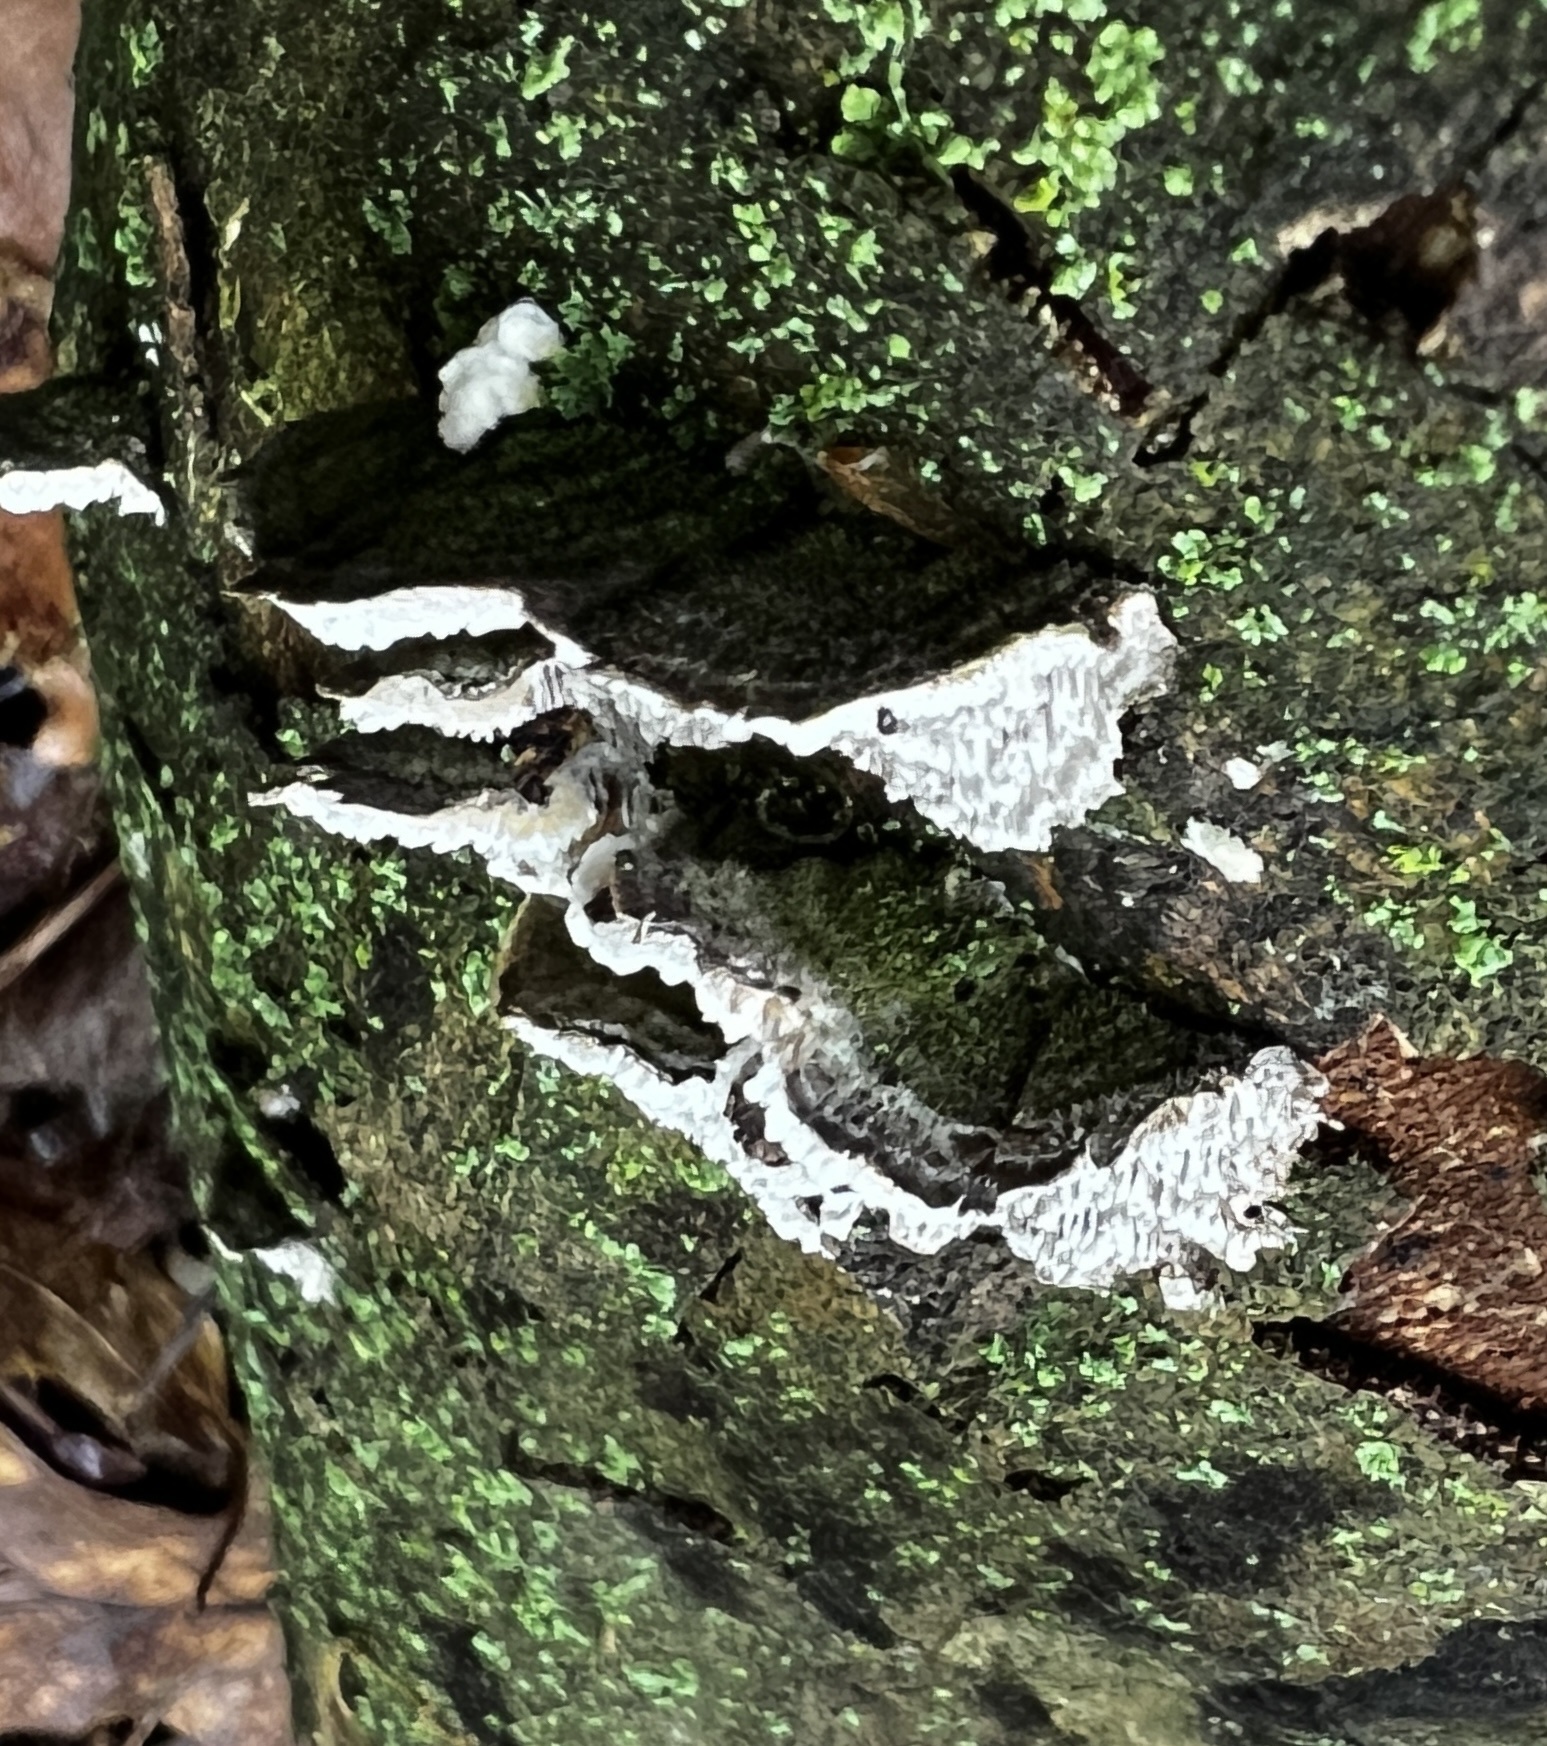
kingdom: Fungi
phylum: Basidiomycota
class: Agaricomycetes
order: Polyporales
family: Cerrenaceae
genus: Cerrena
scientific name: Cerrena unicolor
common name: Mossy maze polypore
